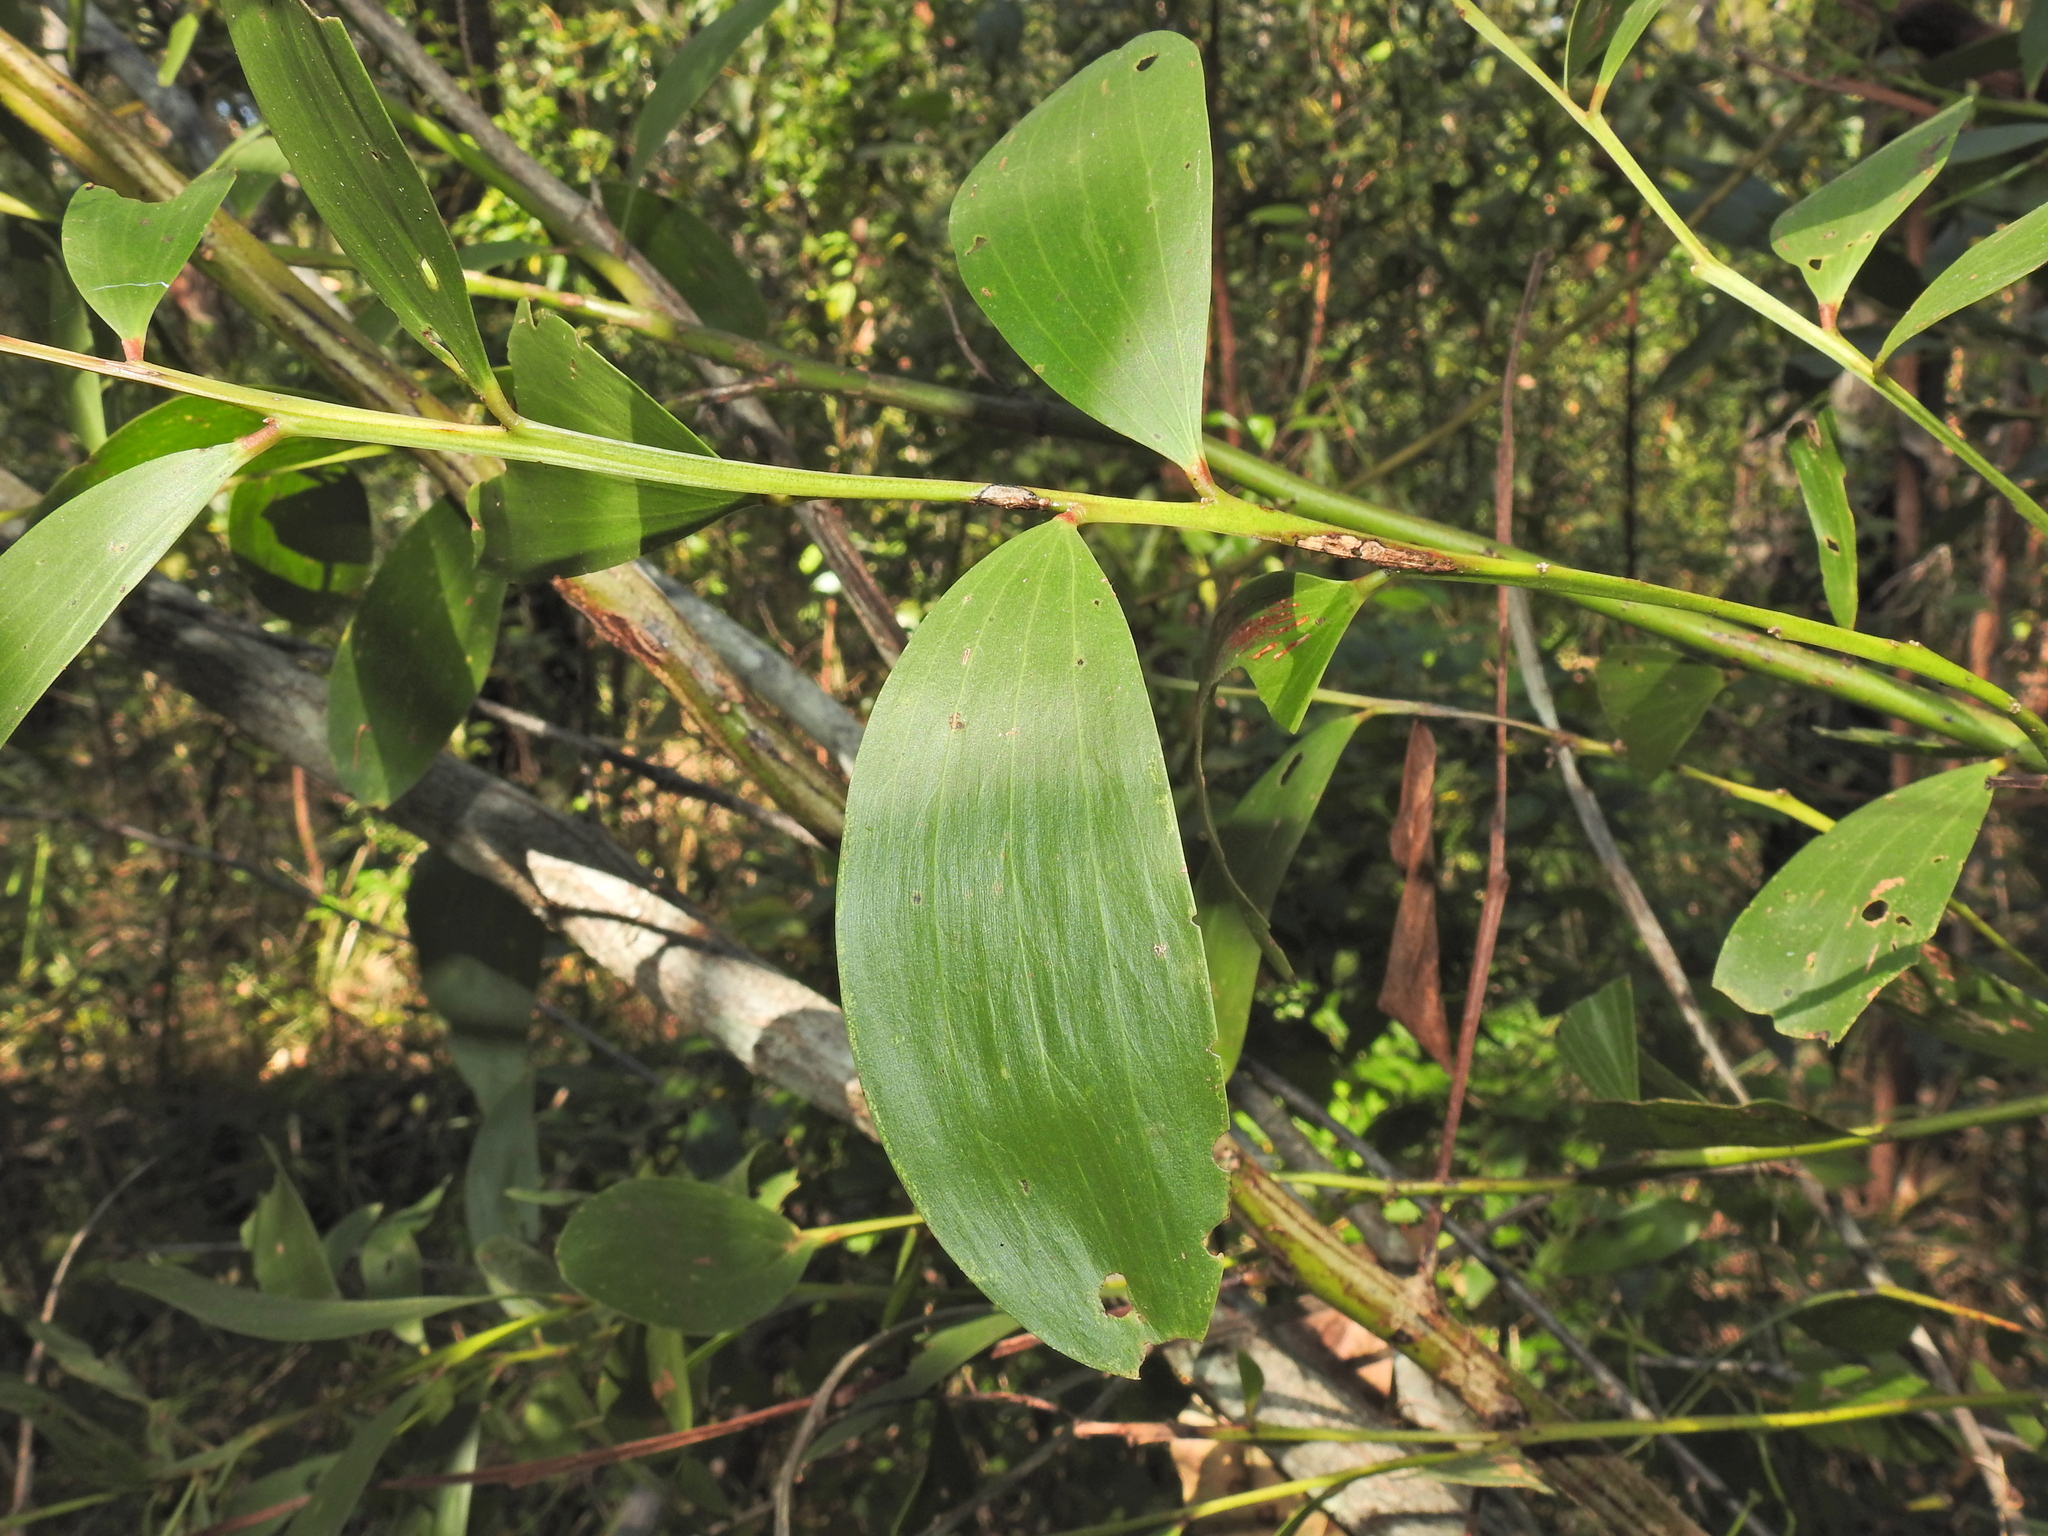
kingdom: Plantae
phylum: Tracheophyta
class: Magnoliopsida
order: Fabales
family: Fabaceae
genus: Acacia
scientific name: Acacia leiocalyx
